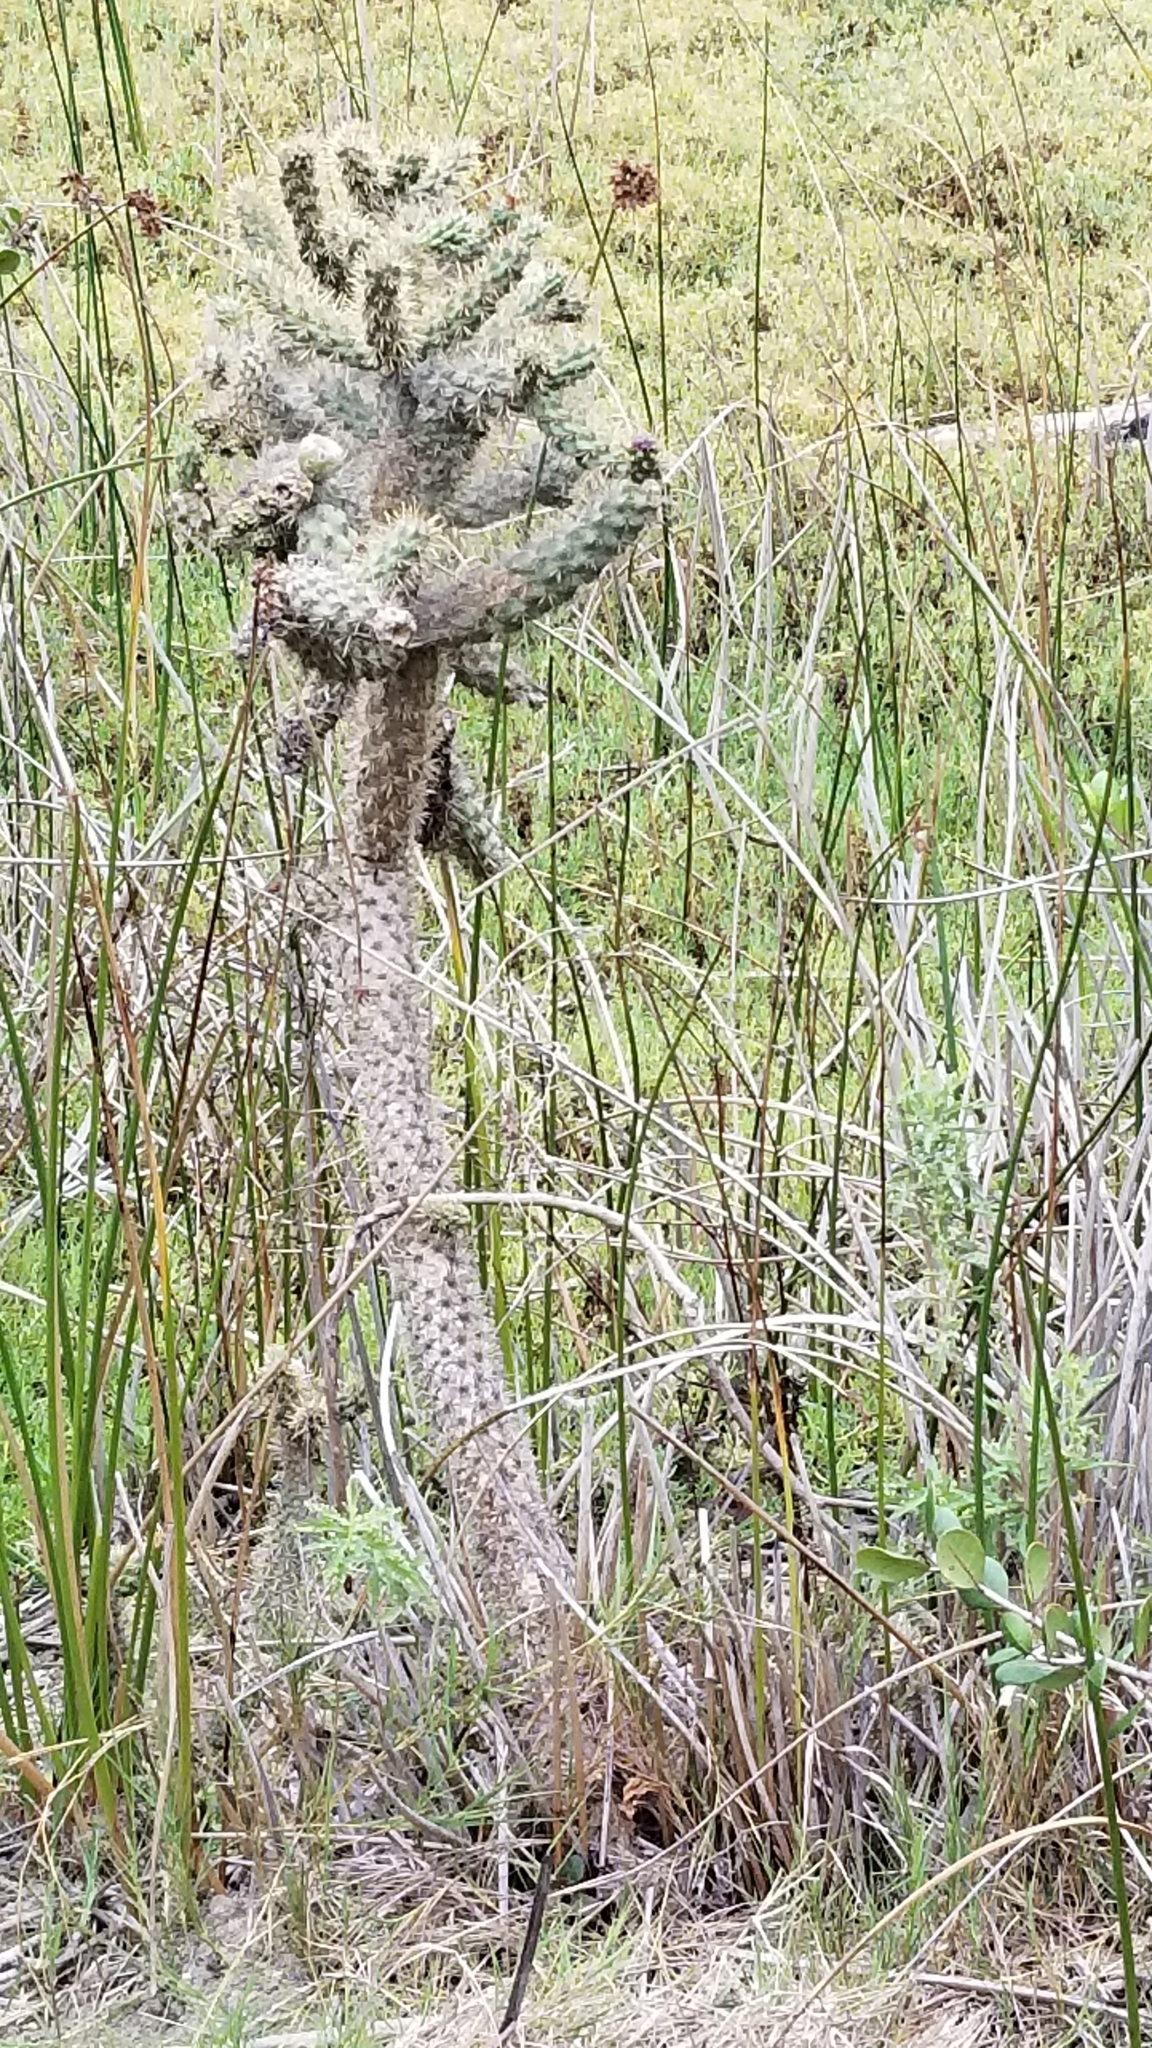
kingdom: Plantae
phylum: Tracheophyta
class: Magnoliopsida
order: Caryophyllales
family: Cactaceae
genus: Cylindropuntia
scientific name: Cylindropuntia prolifera
